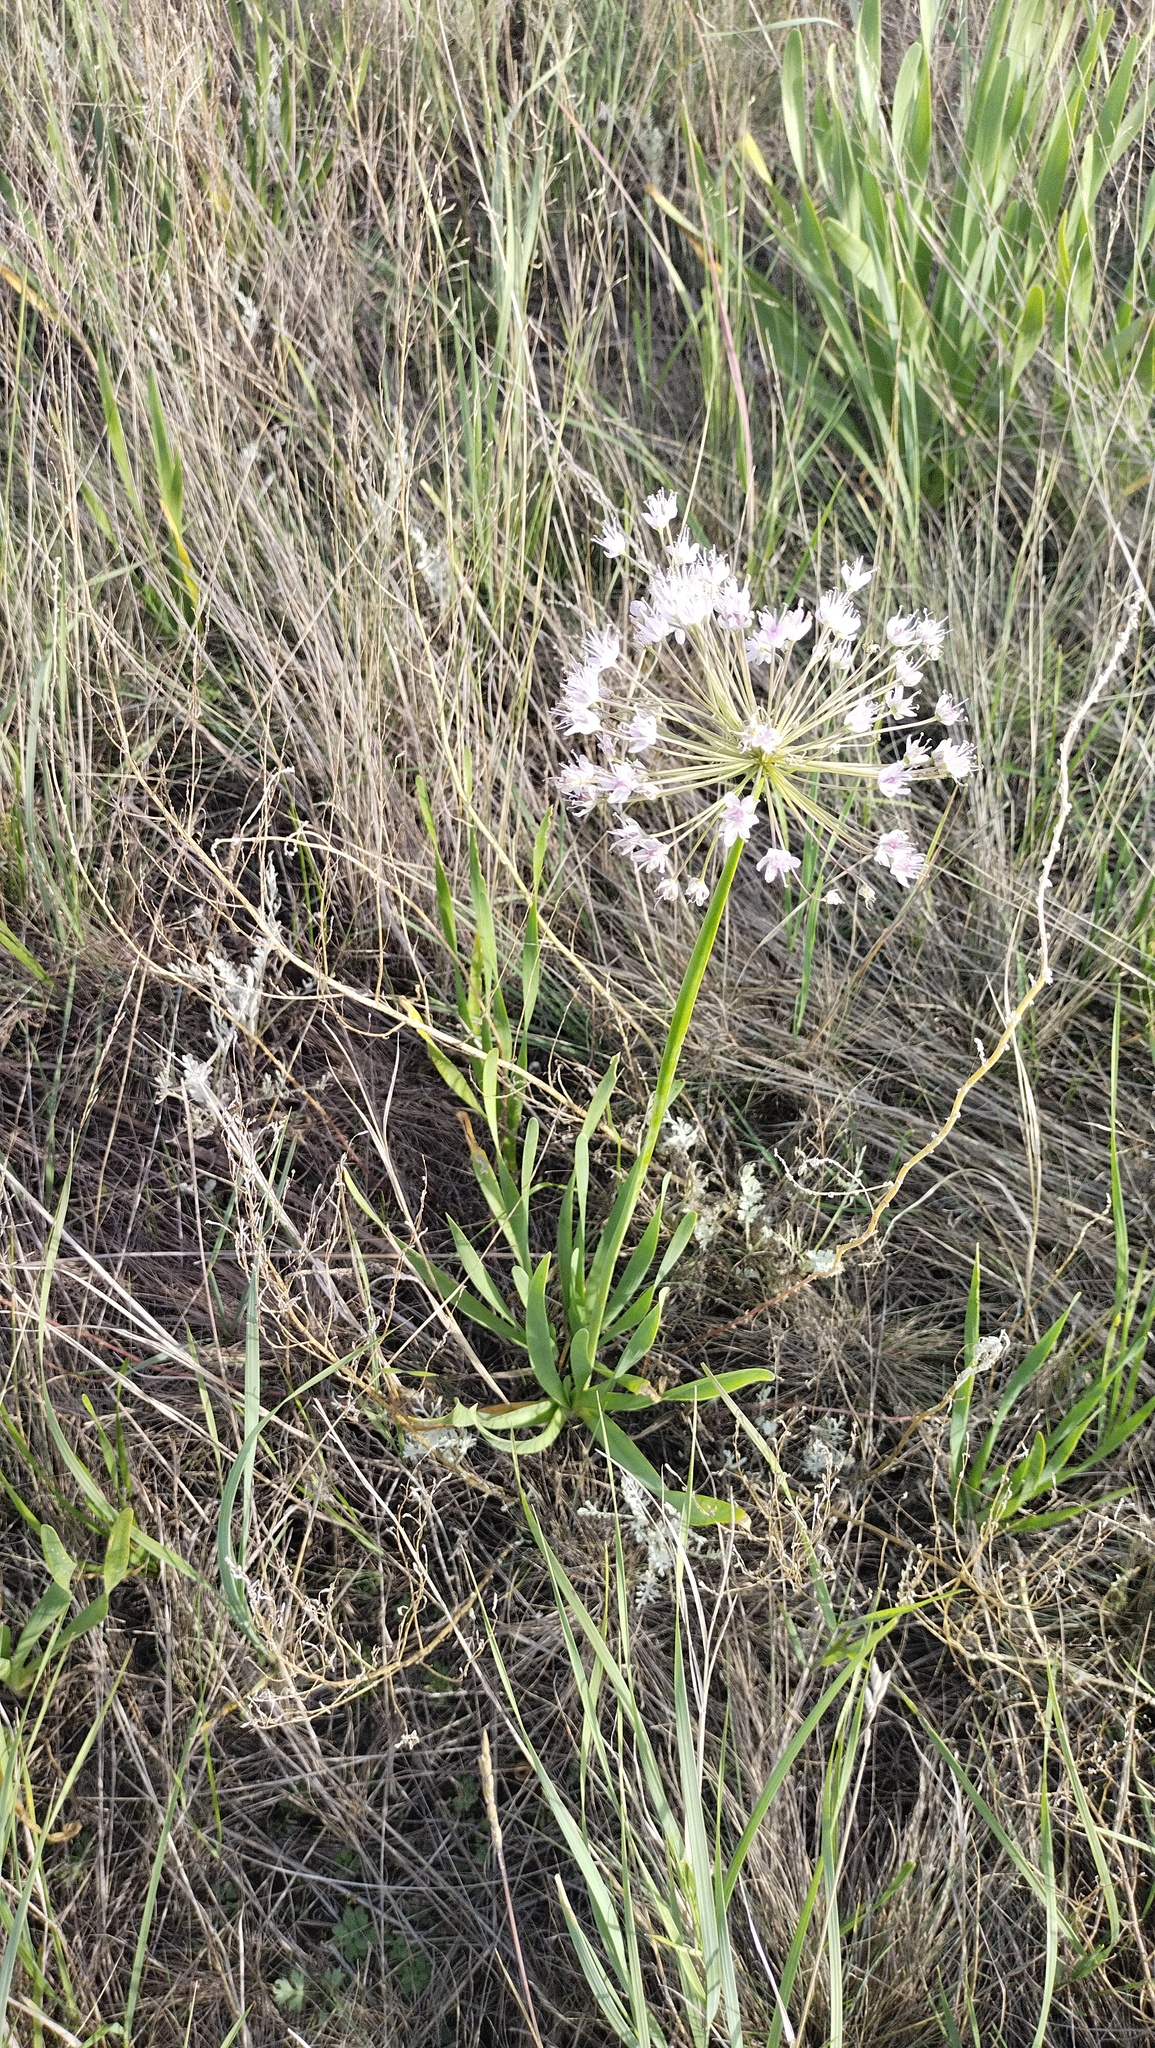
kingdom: Plantae
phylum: Tracheophyta
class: Liliopsida
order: Asparagales
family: Amaryllidaceae
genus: Allium
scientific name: Allium nutans
